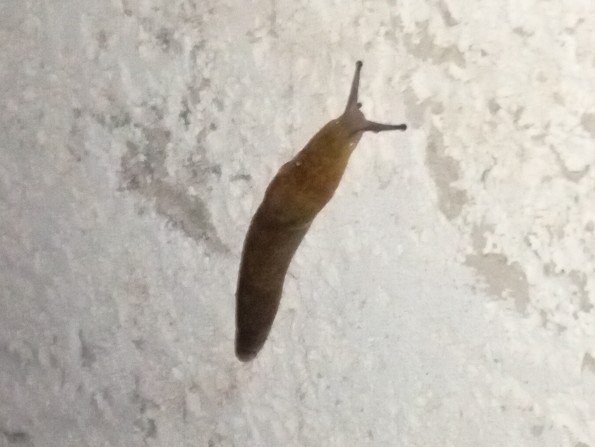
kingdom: Animalia
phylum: Mollusca
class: Gastropoda
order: Stylommatophora
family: Limacidae
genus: Limacus
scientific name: Limacus flavus
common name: Yellow gardenslug
